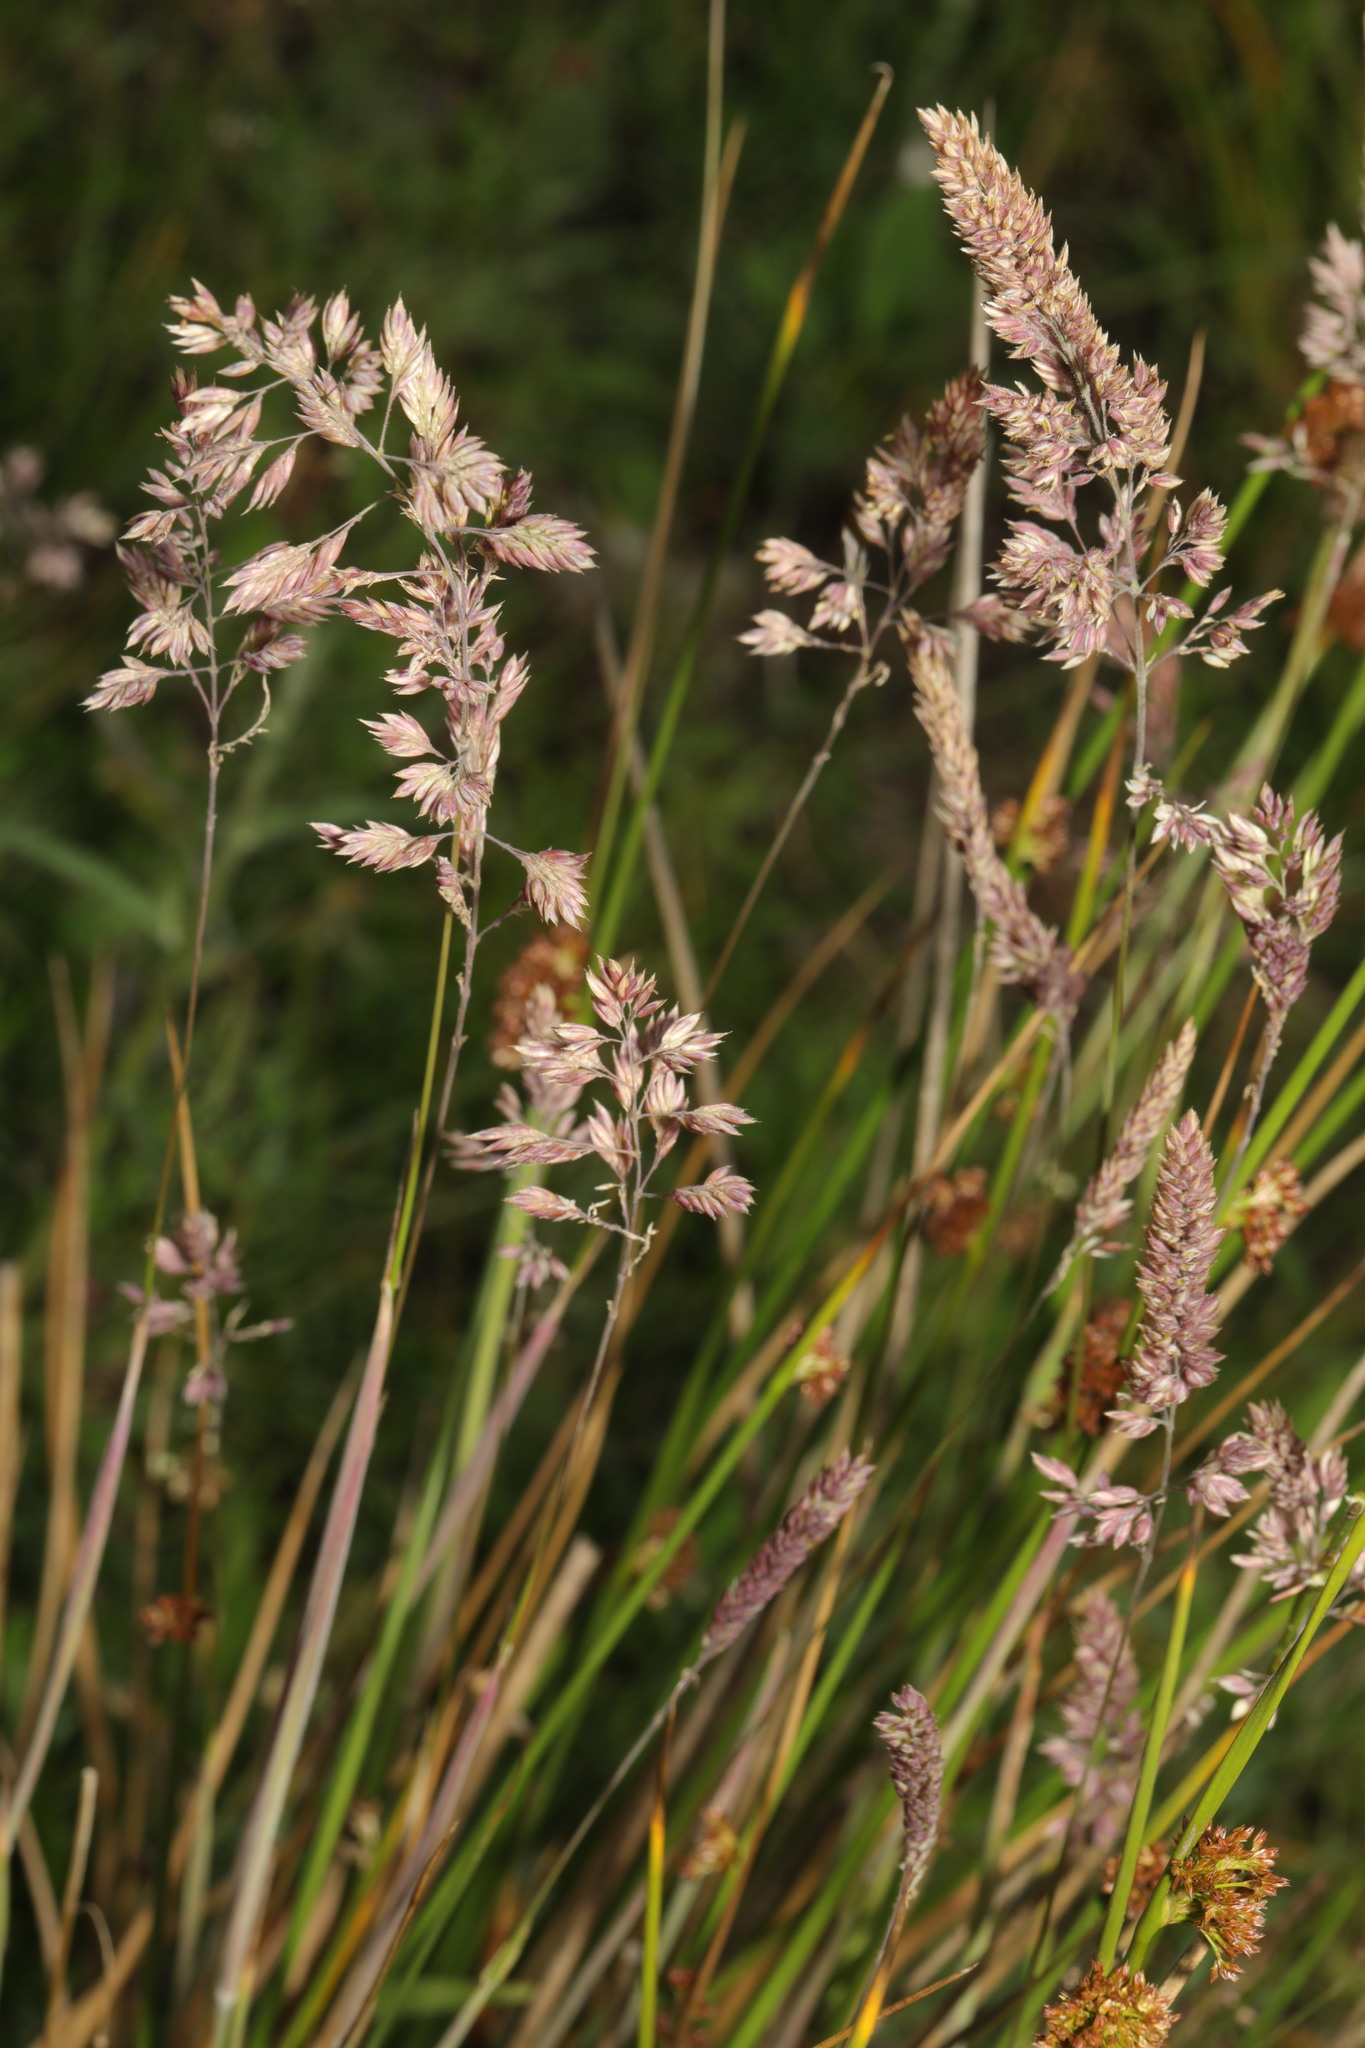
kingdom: Plantae
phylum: Tracheophyta
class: Liliopsida
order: Poales
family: Poaceae
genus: Holcus
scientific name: Holcus lanatus
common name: Yorkshire-fog
